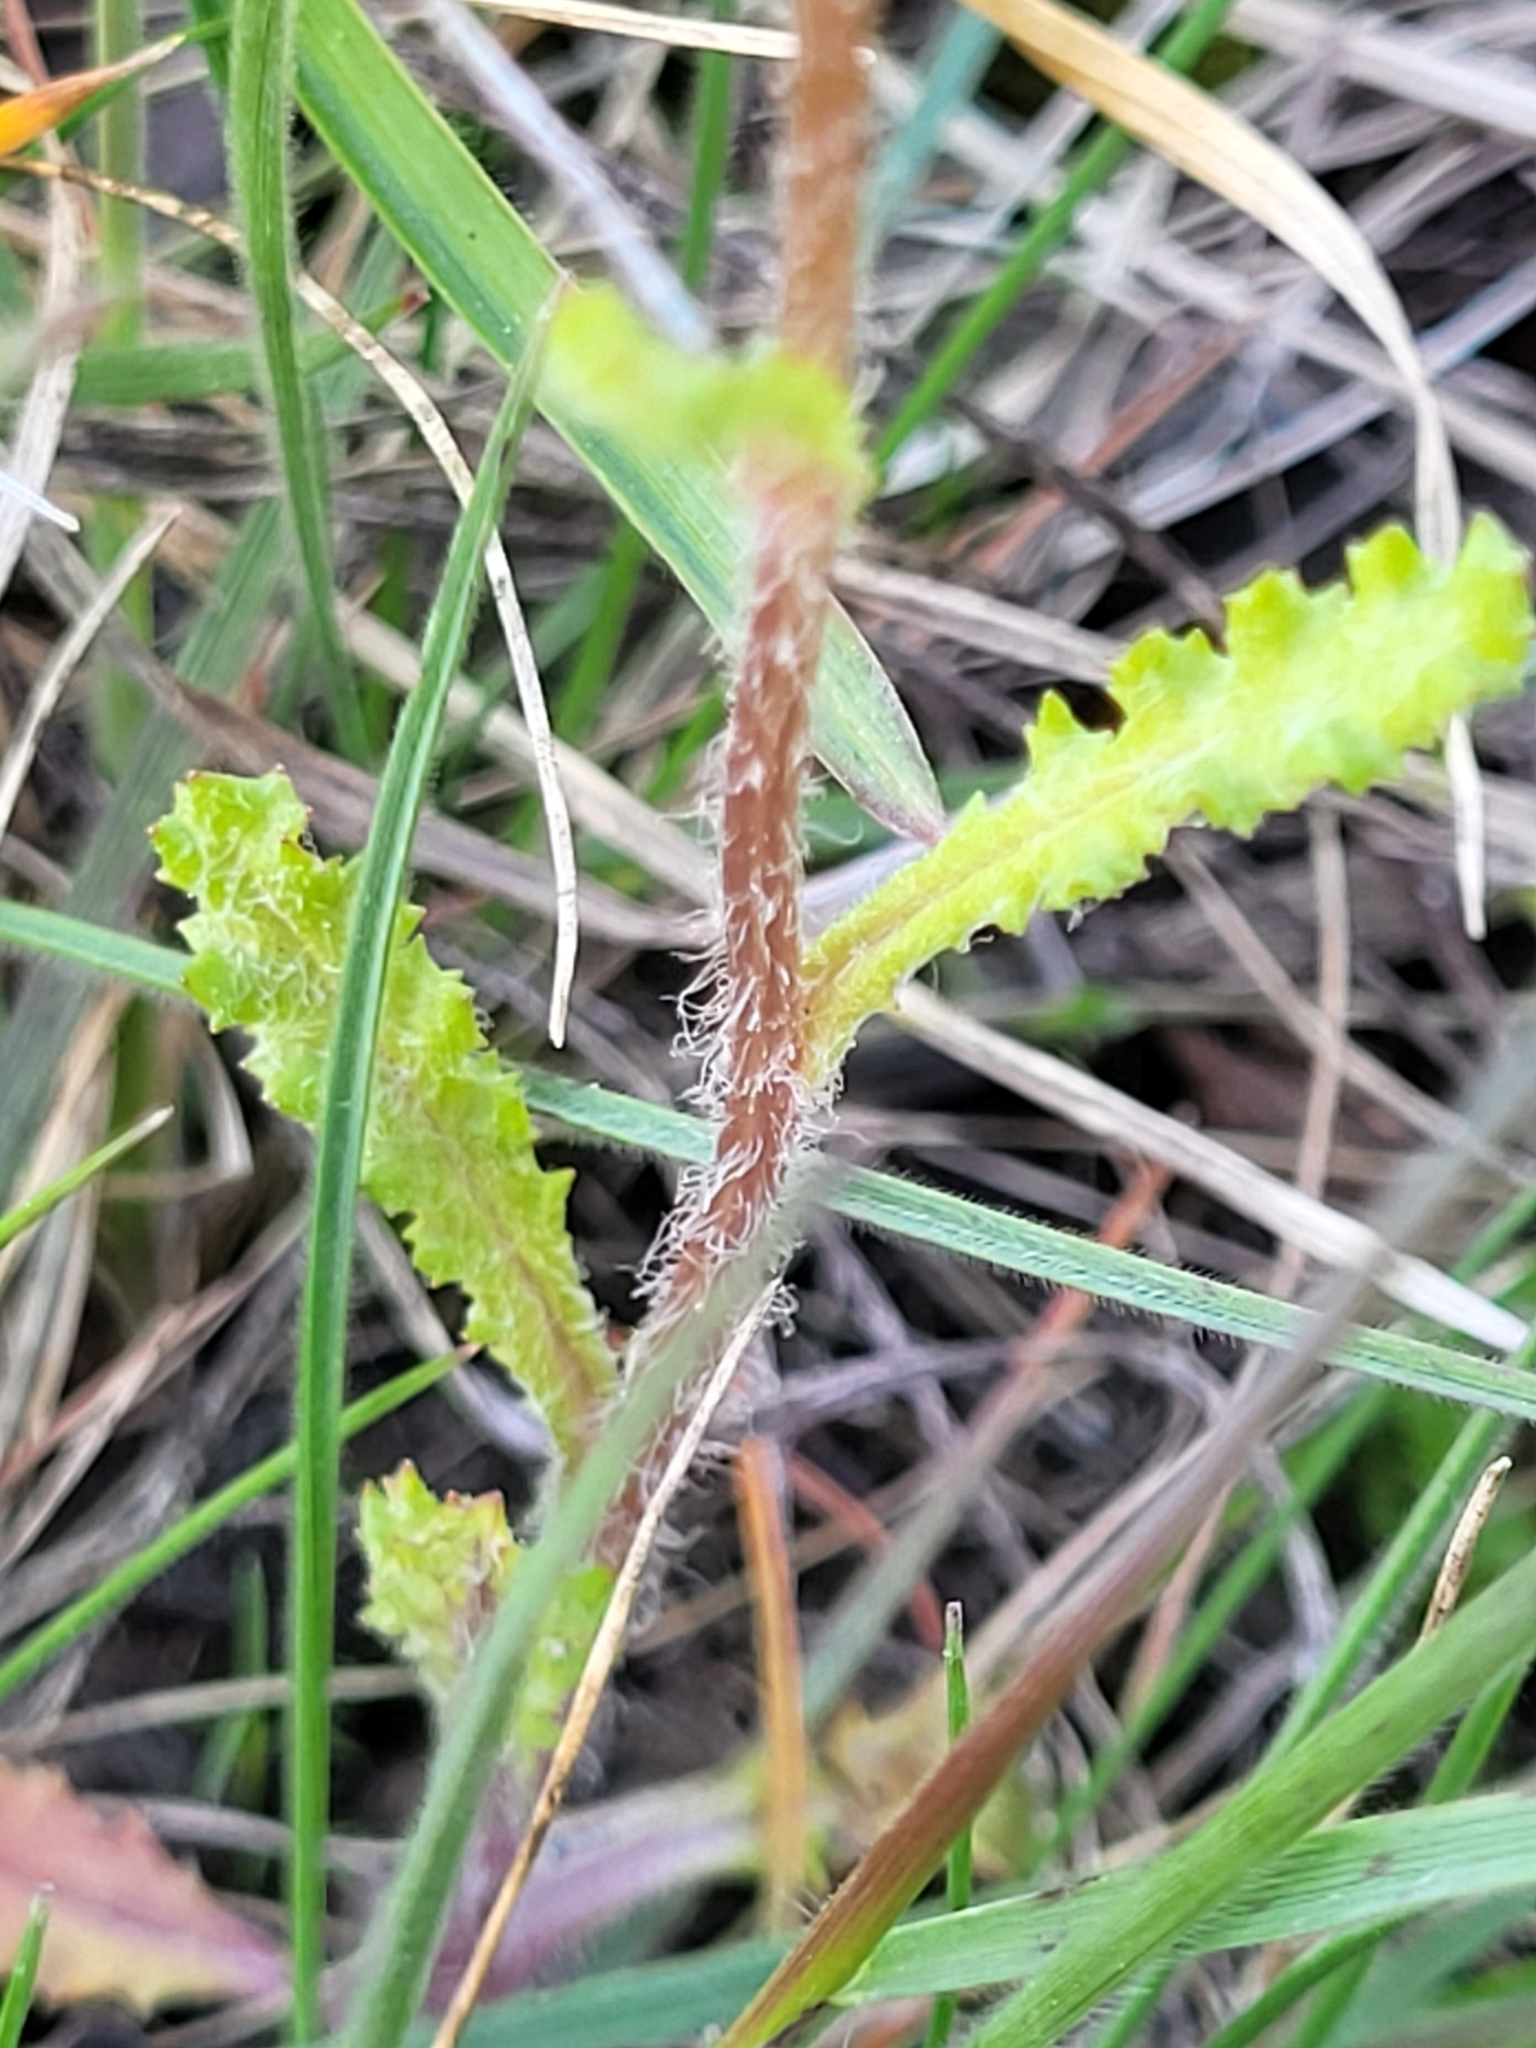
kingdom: Plantae
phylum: Tracheophyta
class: Magnoliopsida
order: Asterales
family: Asteraceae
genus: Senecio
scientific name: Senecio vernalis
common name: Eastern groundsel
